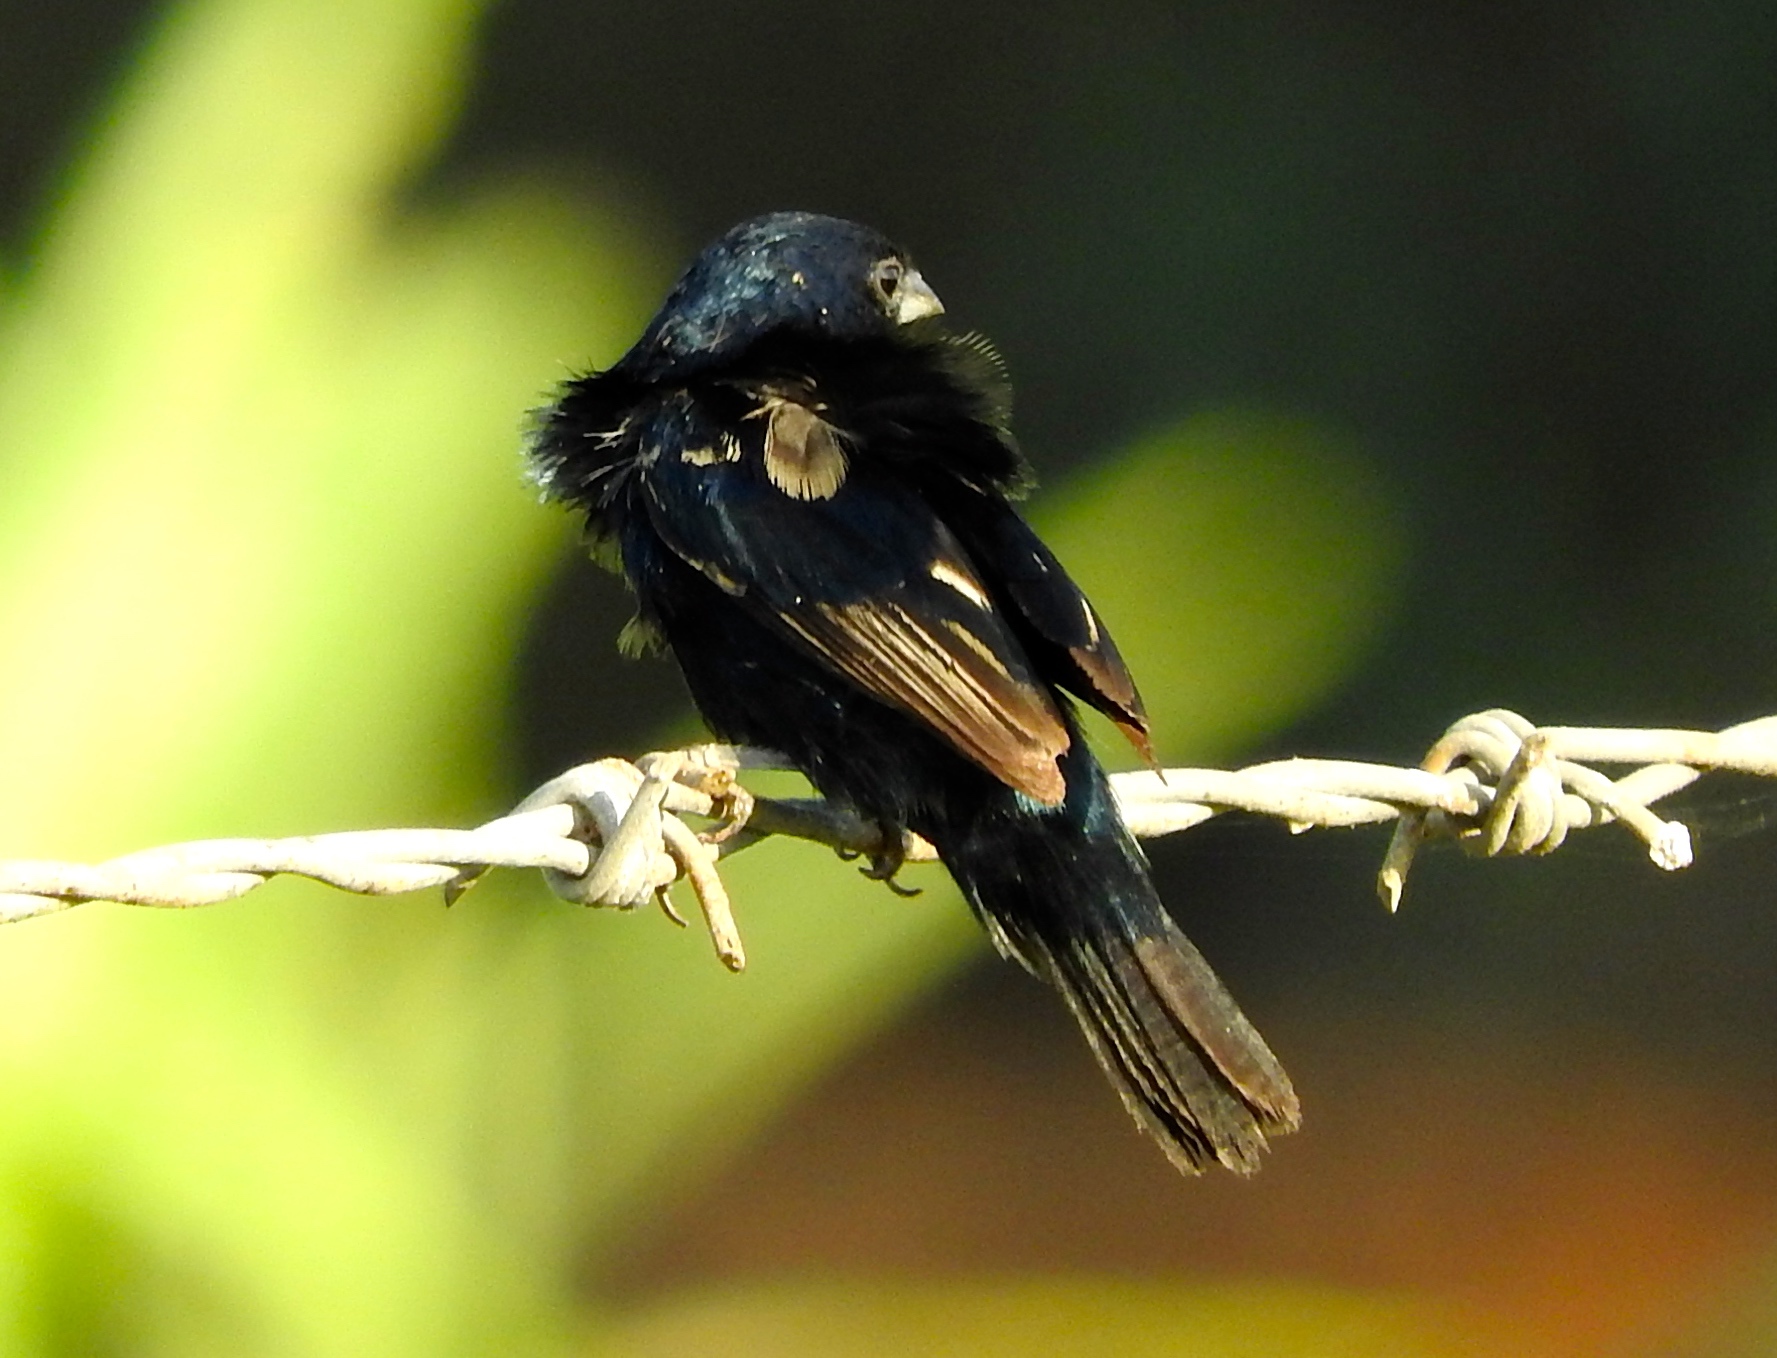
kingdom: Animalia
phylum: Chordata
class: Aves
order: Passeriformes
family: Thraupidae
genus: Volatinia
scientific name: Volatinia jacarina
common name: Blue-black grassquit
